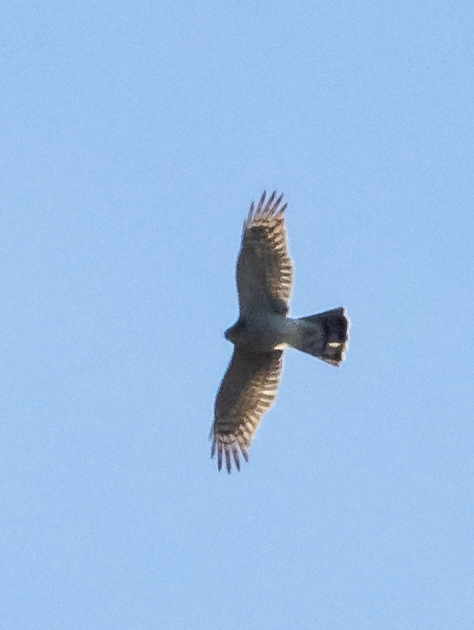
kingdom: Animalia
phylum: Chordata
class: Aves
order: Accipitriformes
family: Accipitridae
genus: Accipiter
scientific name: Accipiter nisus
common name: Eurasian sparrowhawk
